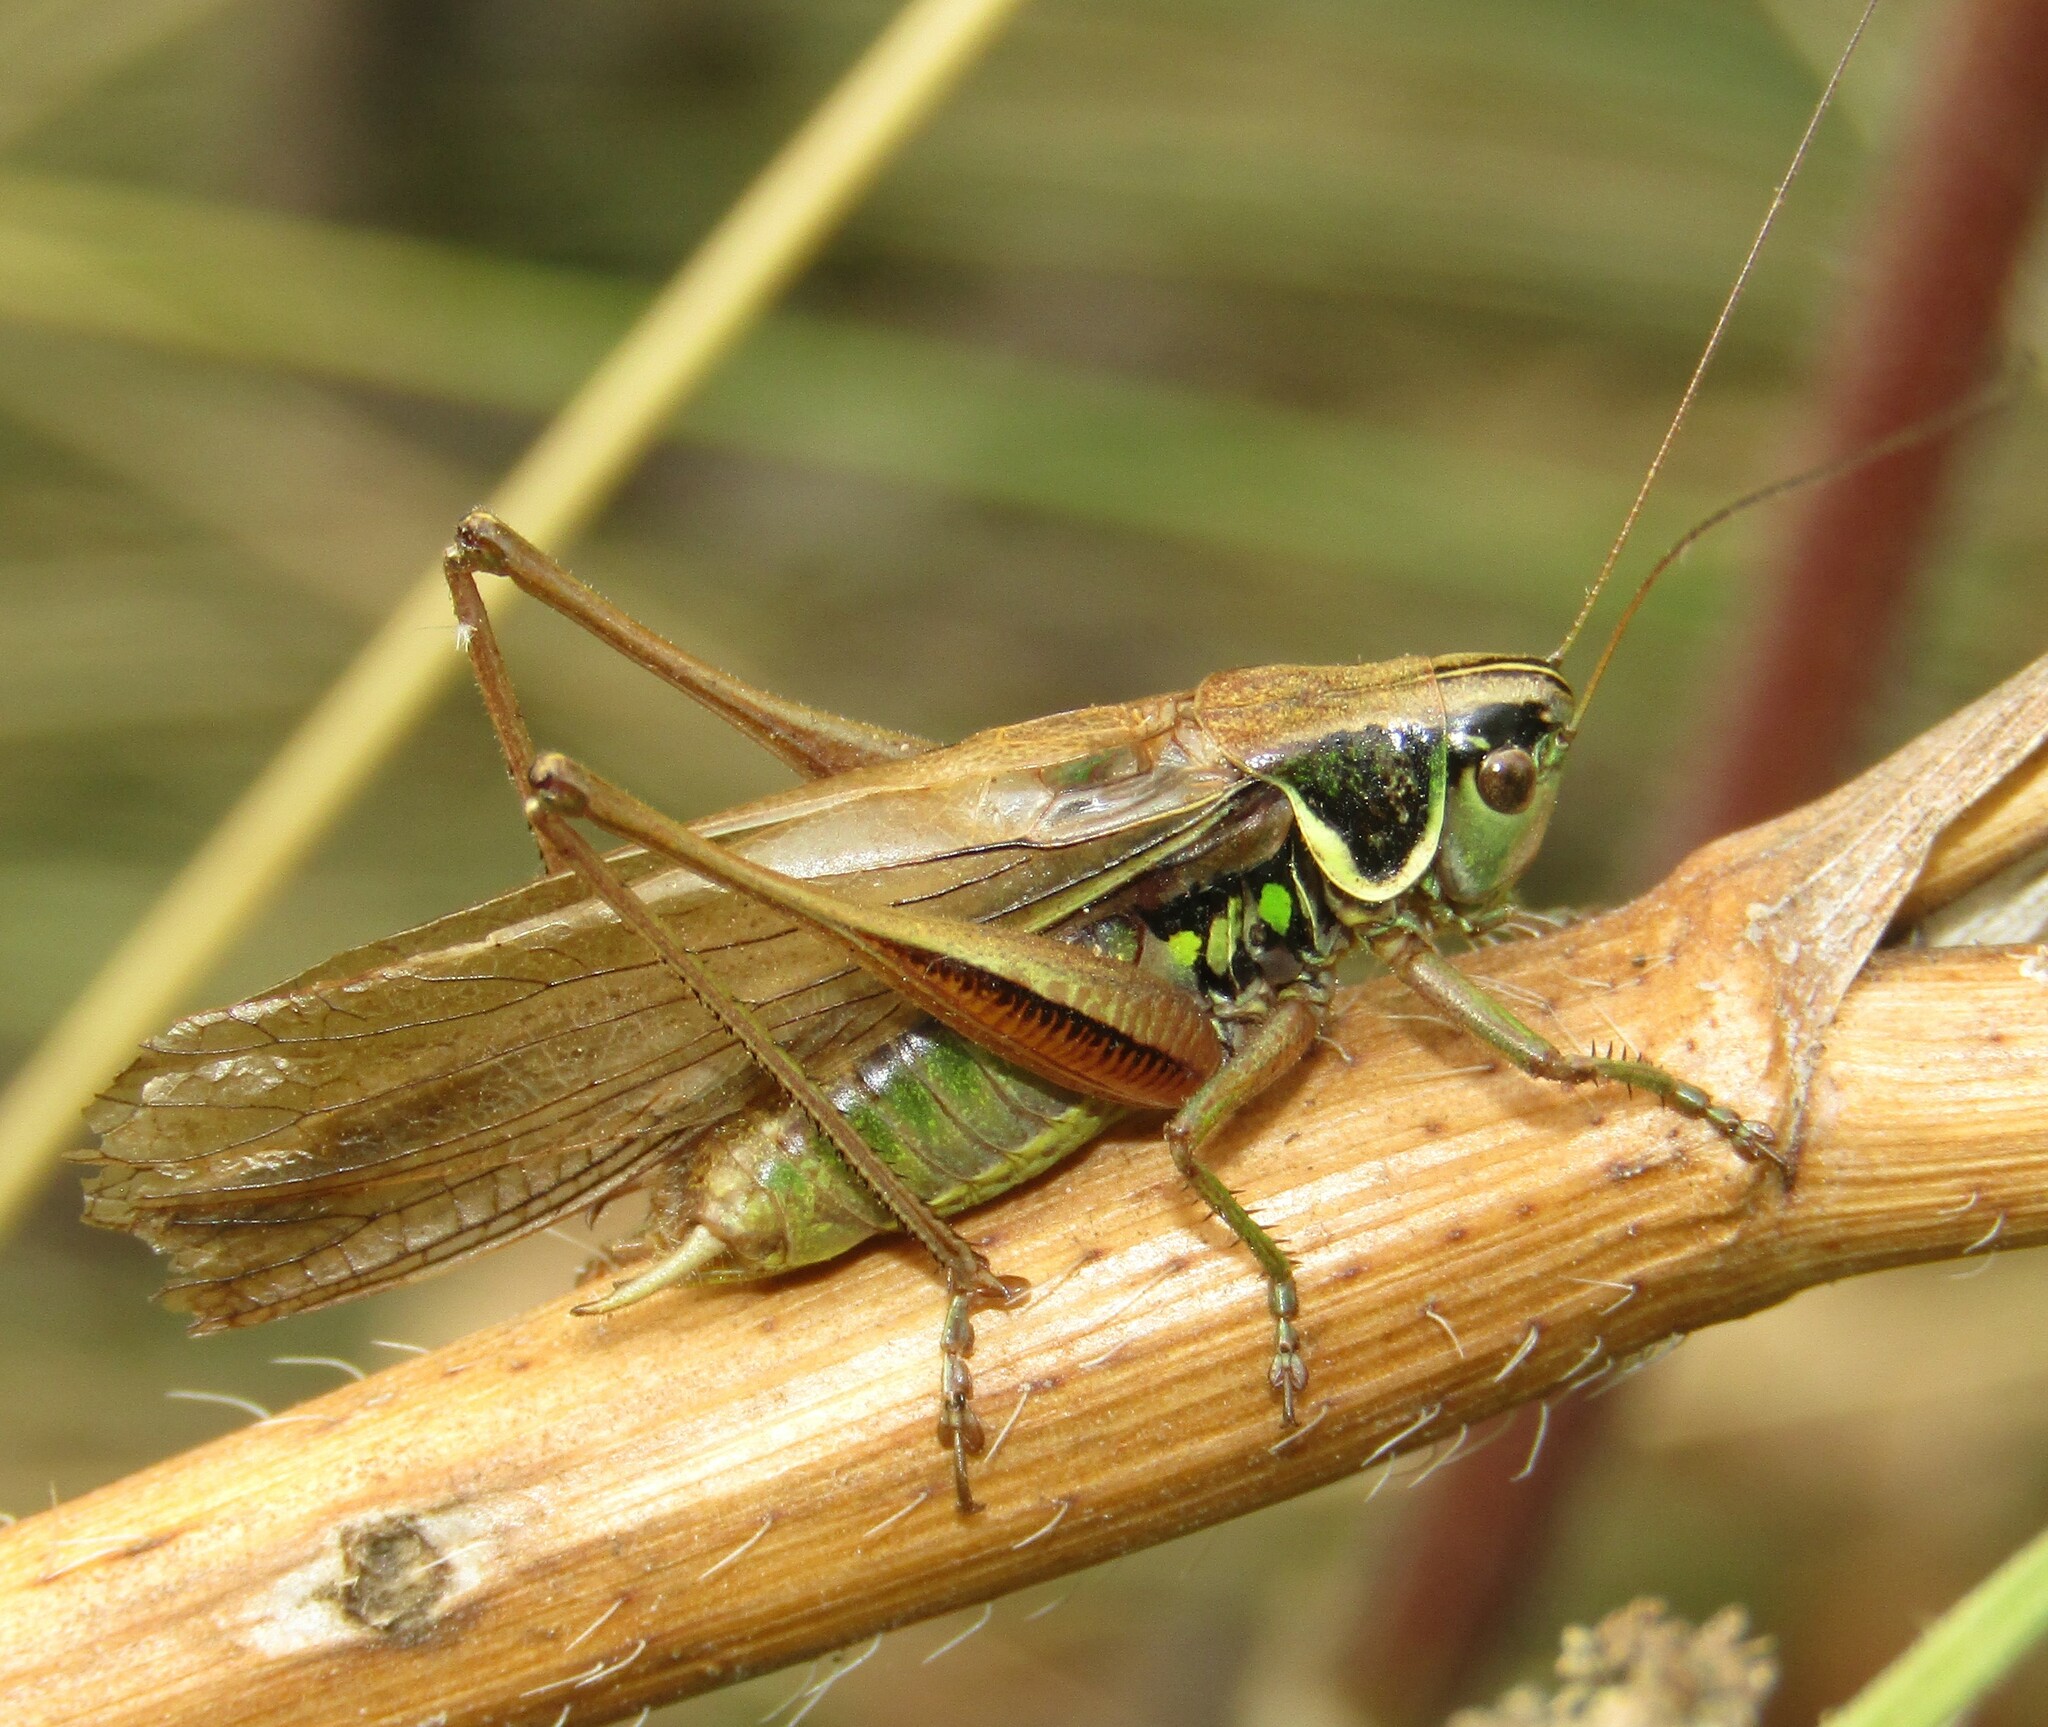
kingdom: Animalia
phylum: Arthropoda
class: Insecta
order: Orthoptera
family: Tettigoniidae
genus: Roeseliana
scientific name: Roeseliana roeselii
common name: Roesel's bush cricket
